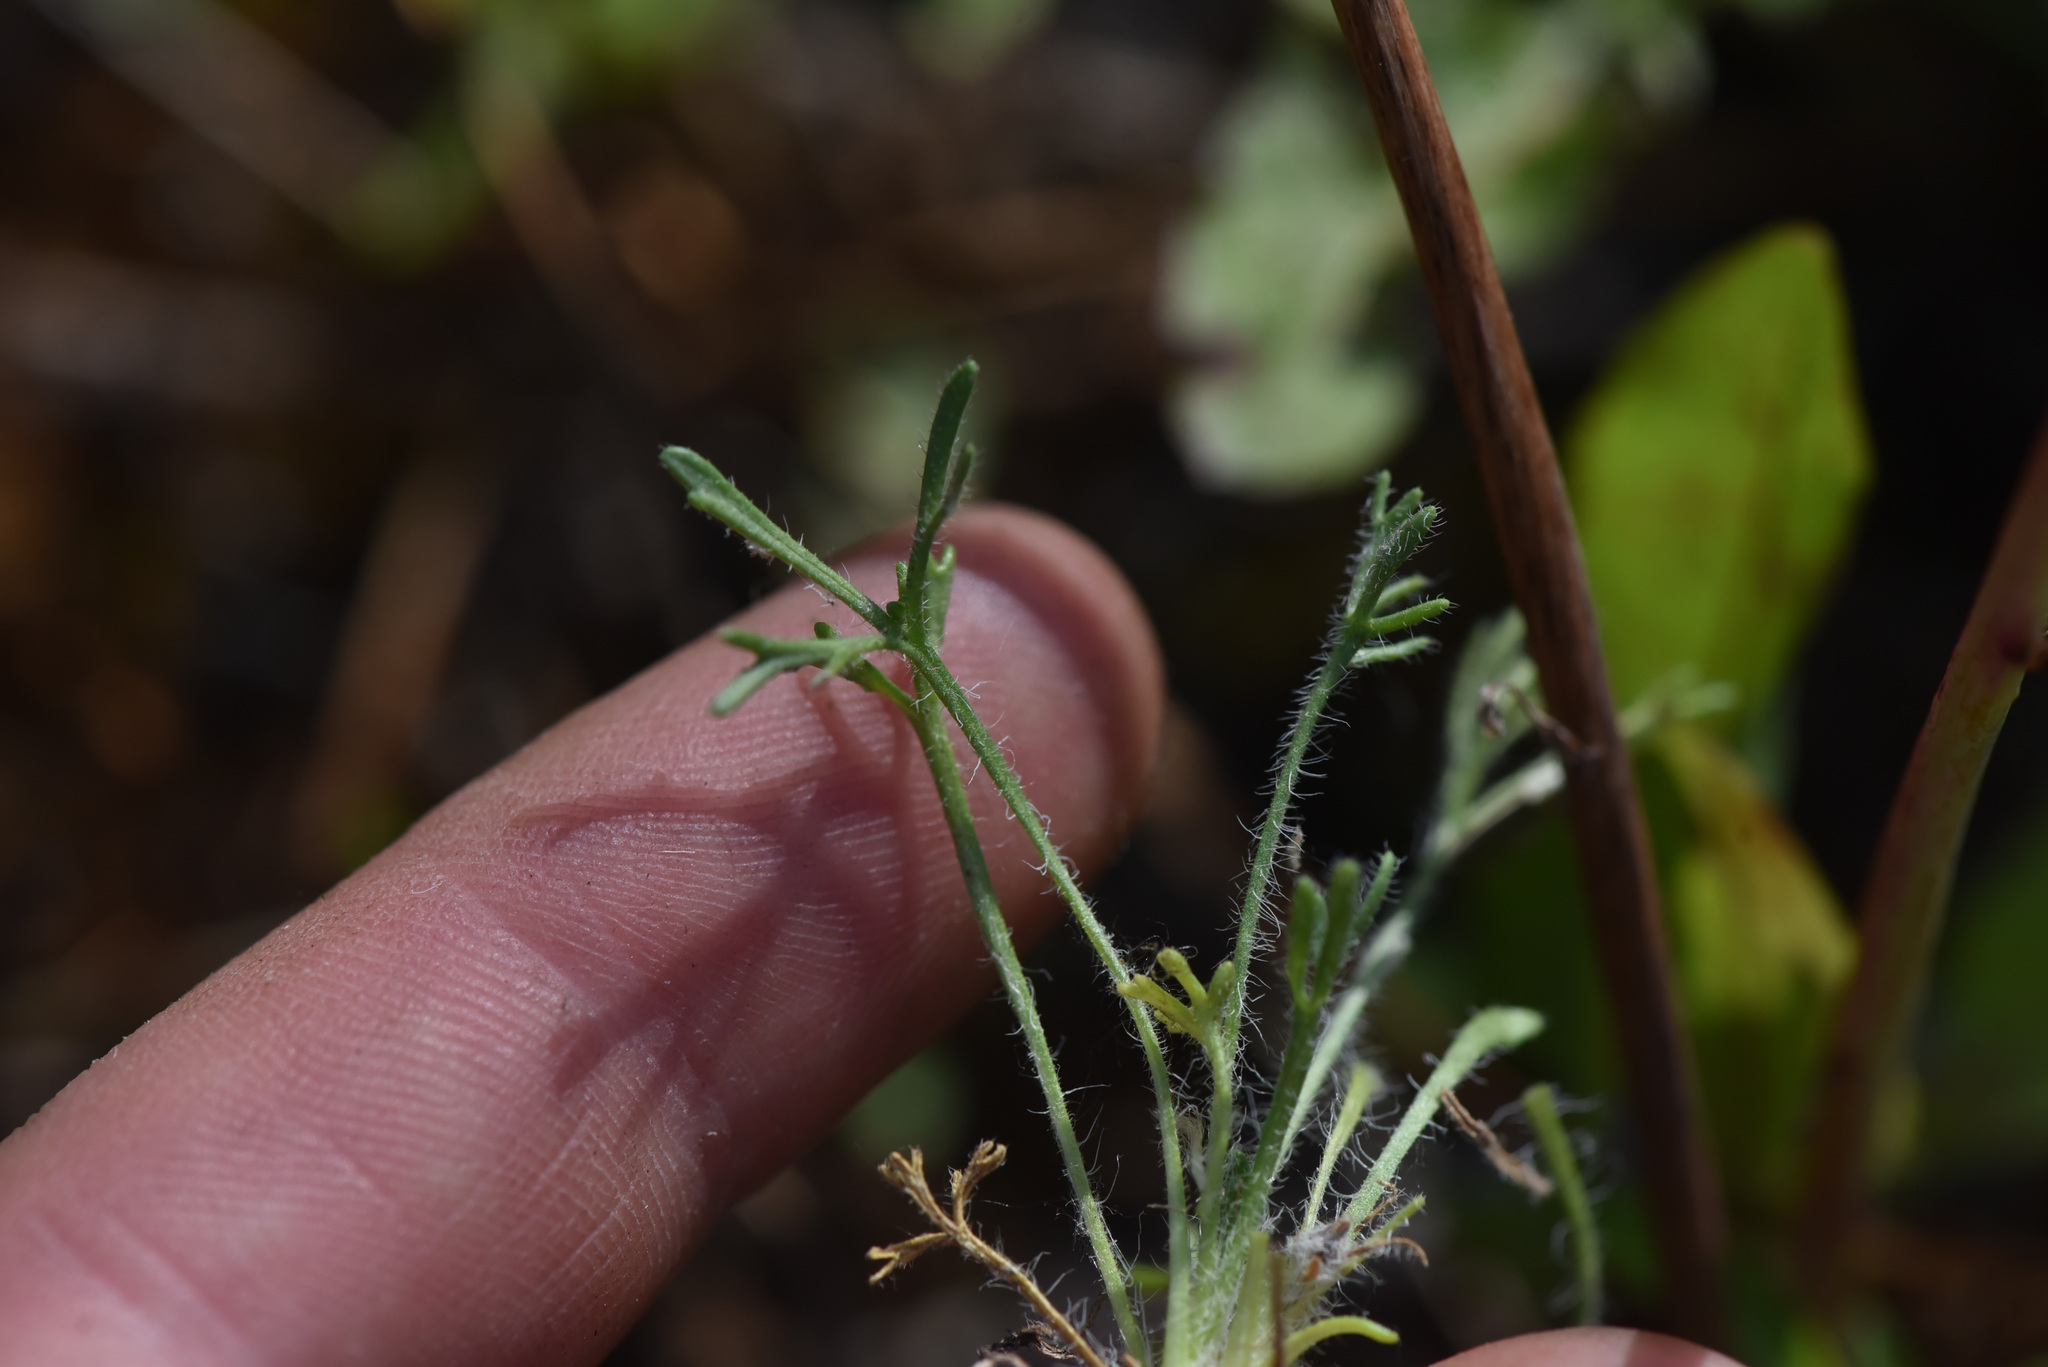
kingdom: Plantae
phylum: Tracheophyta
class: Magnoliopsida
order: Asterales
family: Asteraceae
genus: Erigeron
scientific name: Erigeron compositus
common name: Dwarf mountain fleabane
